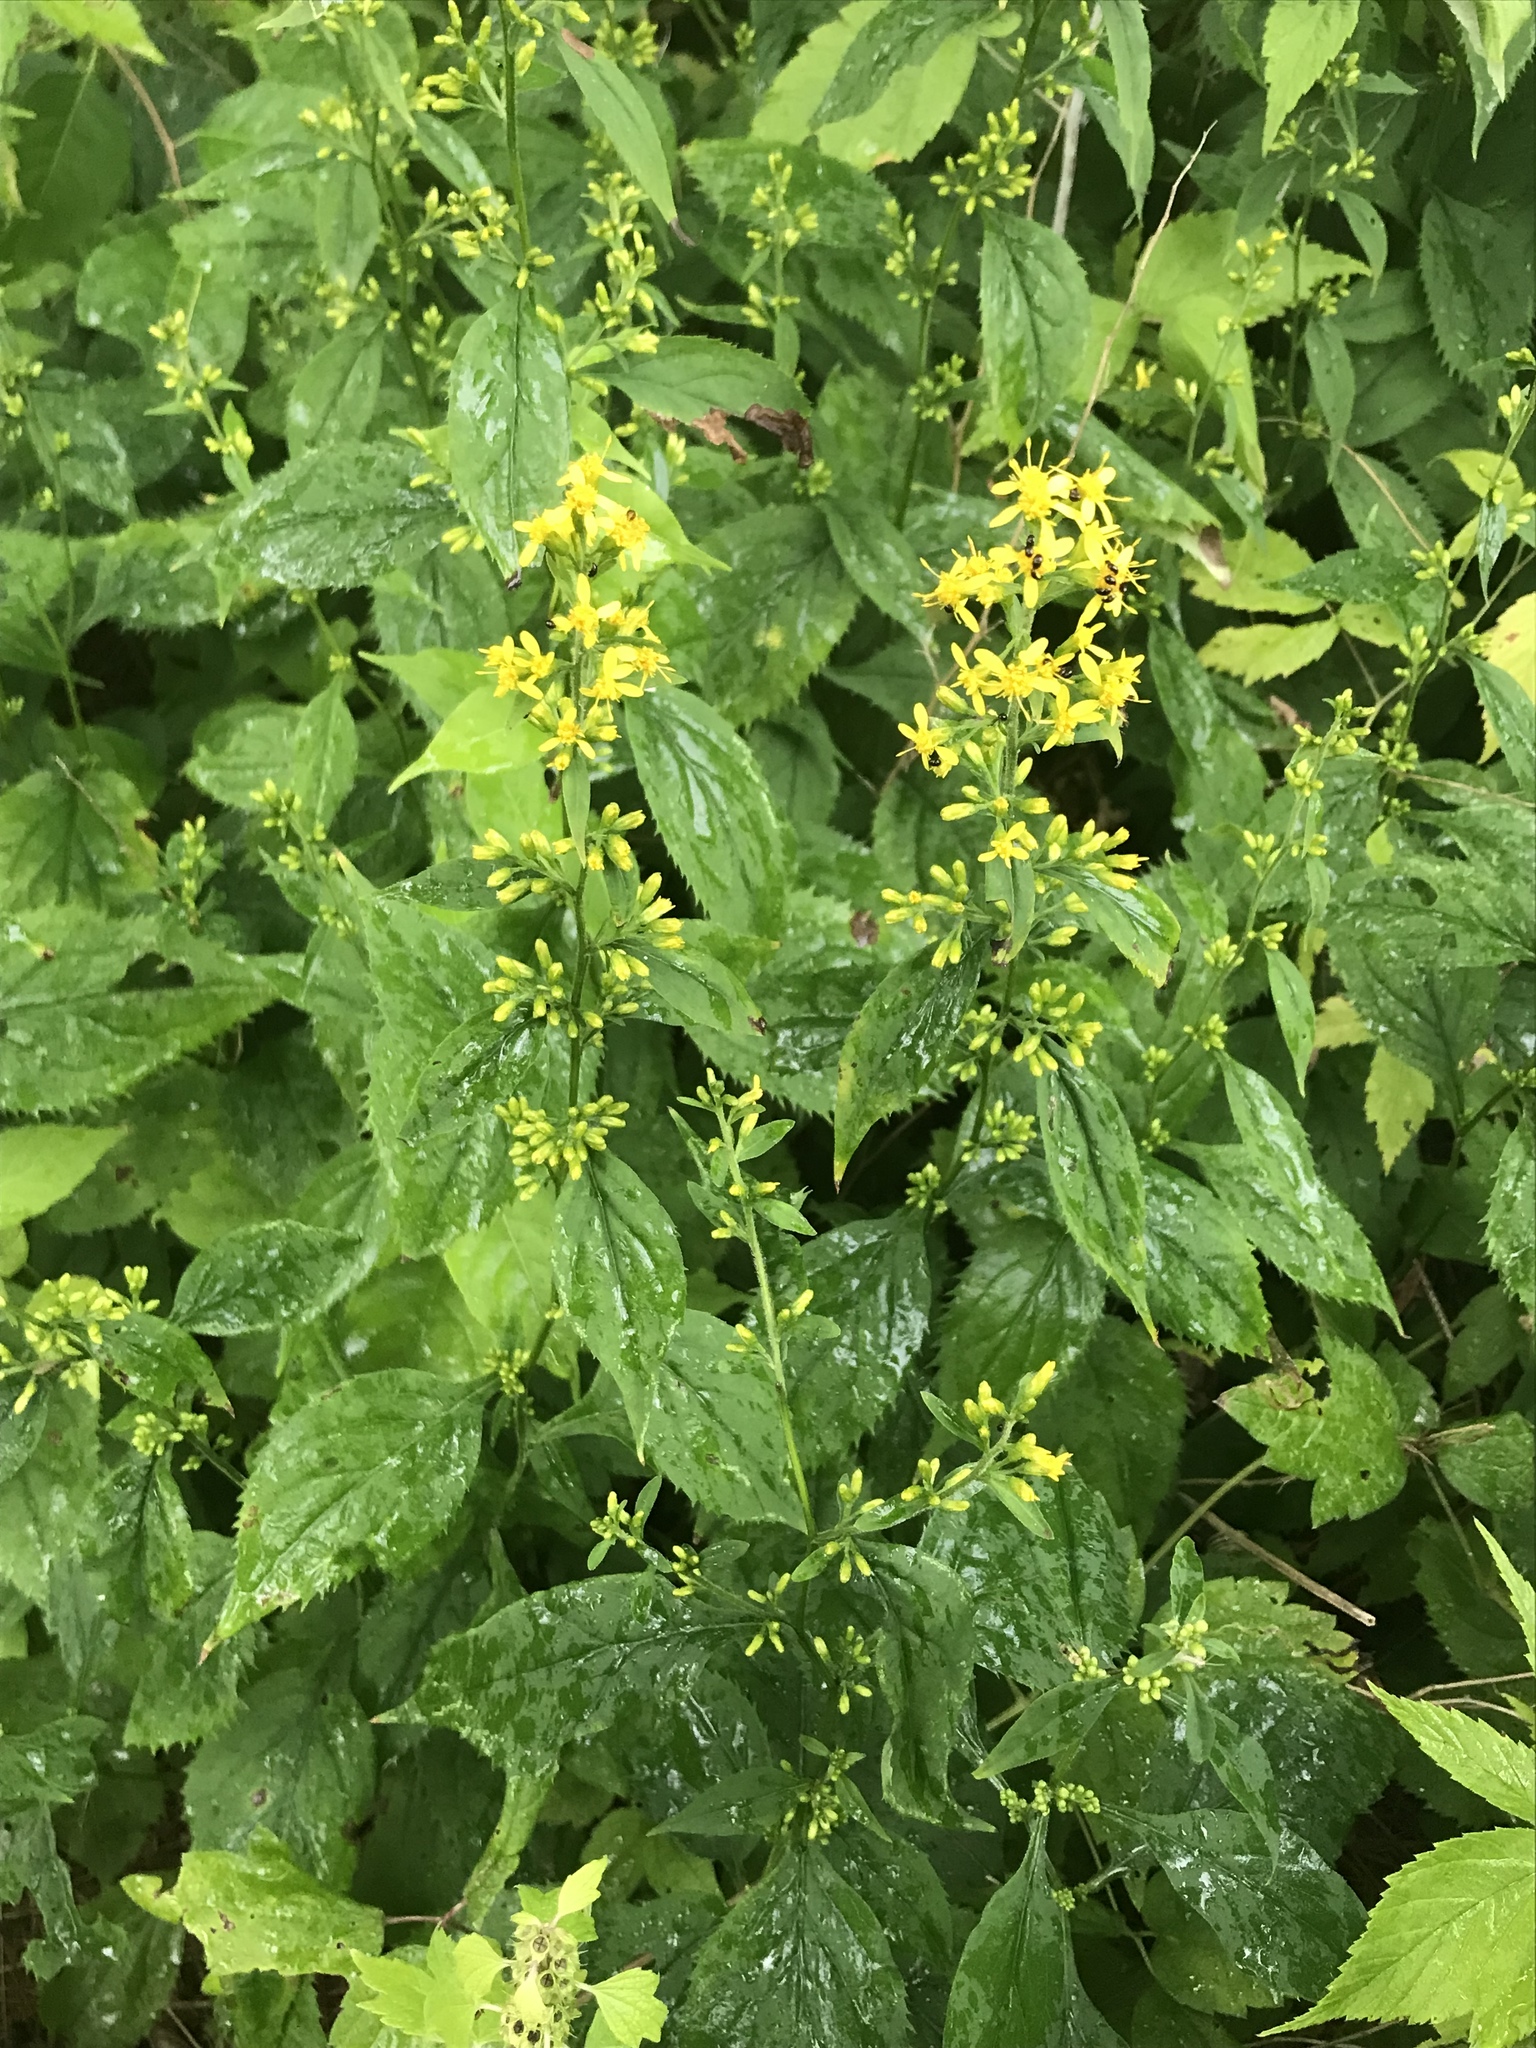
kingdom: Plantae
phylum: Tracheophyta
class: Magnoliopsida
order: Asterales
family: Asteraceae
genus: Solidago
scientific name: Solidago flexicaulis
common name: Zig-zag goldenrod
